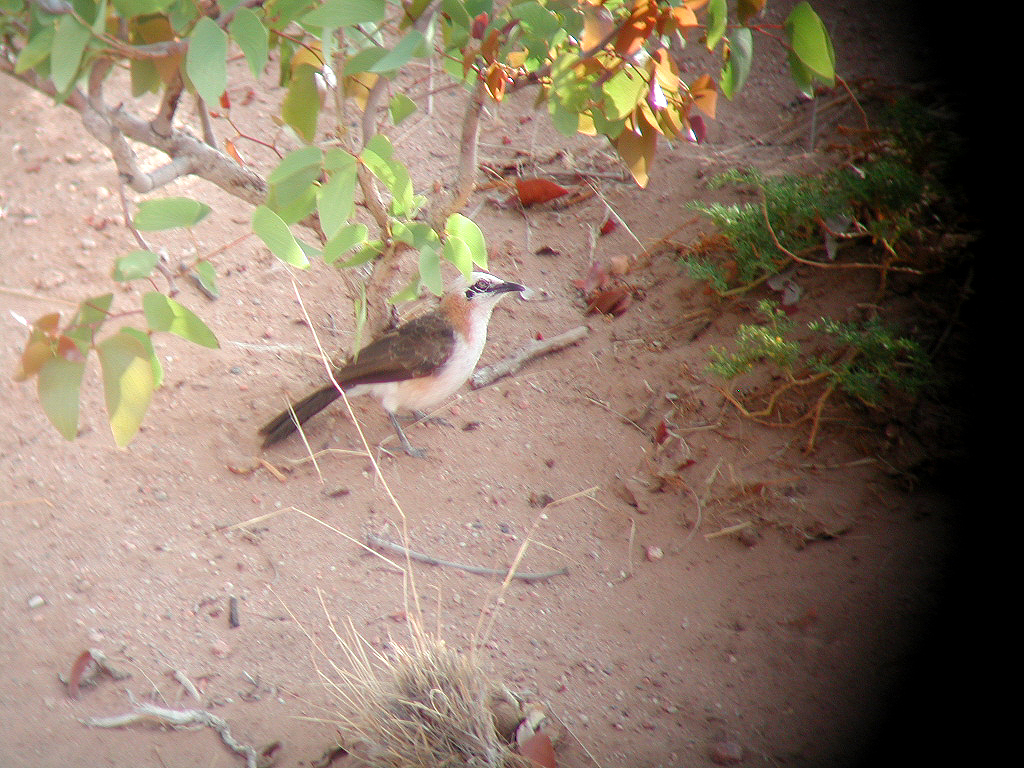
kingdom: Animalia
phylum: Chordata
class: Aves
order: Passeriformes
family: Leiothrichidae
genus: Turdoides
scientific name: Turdoides gymnogenys
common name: Bare-cheeked babbler
